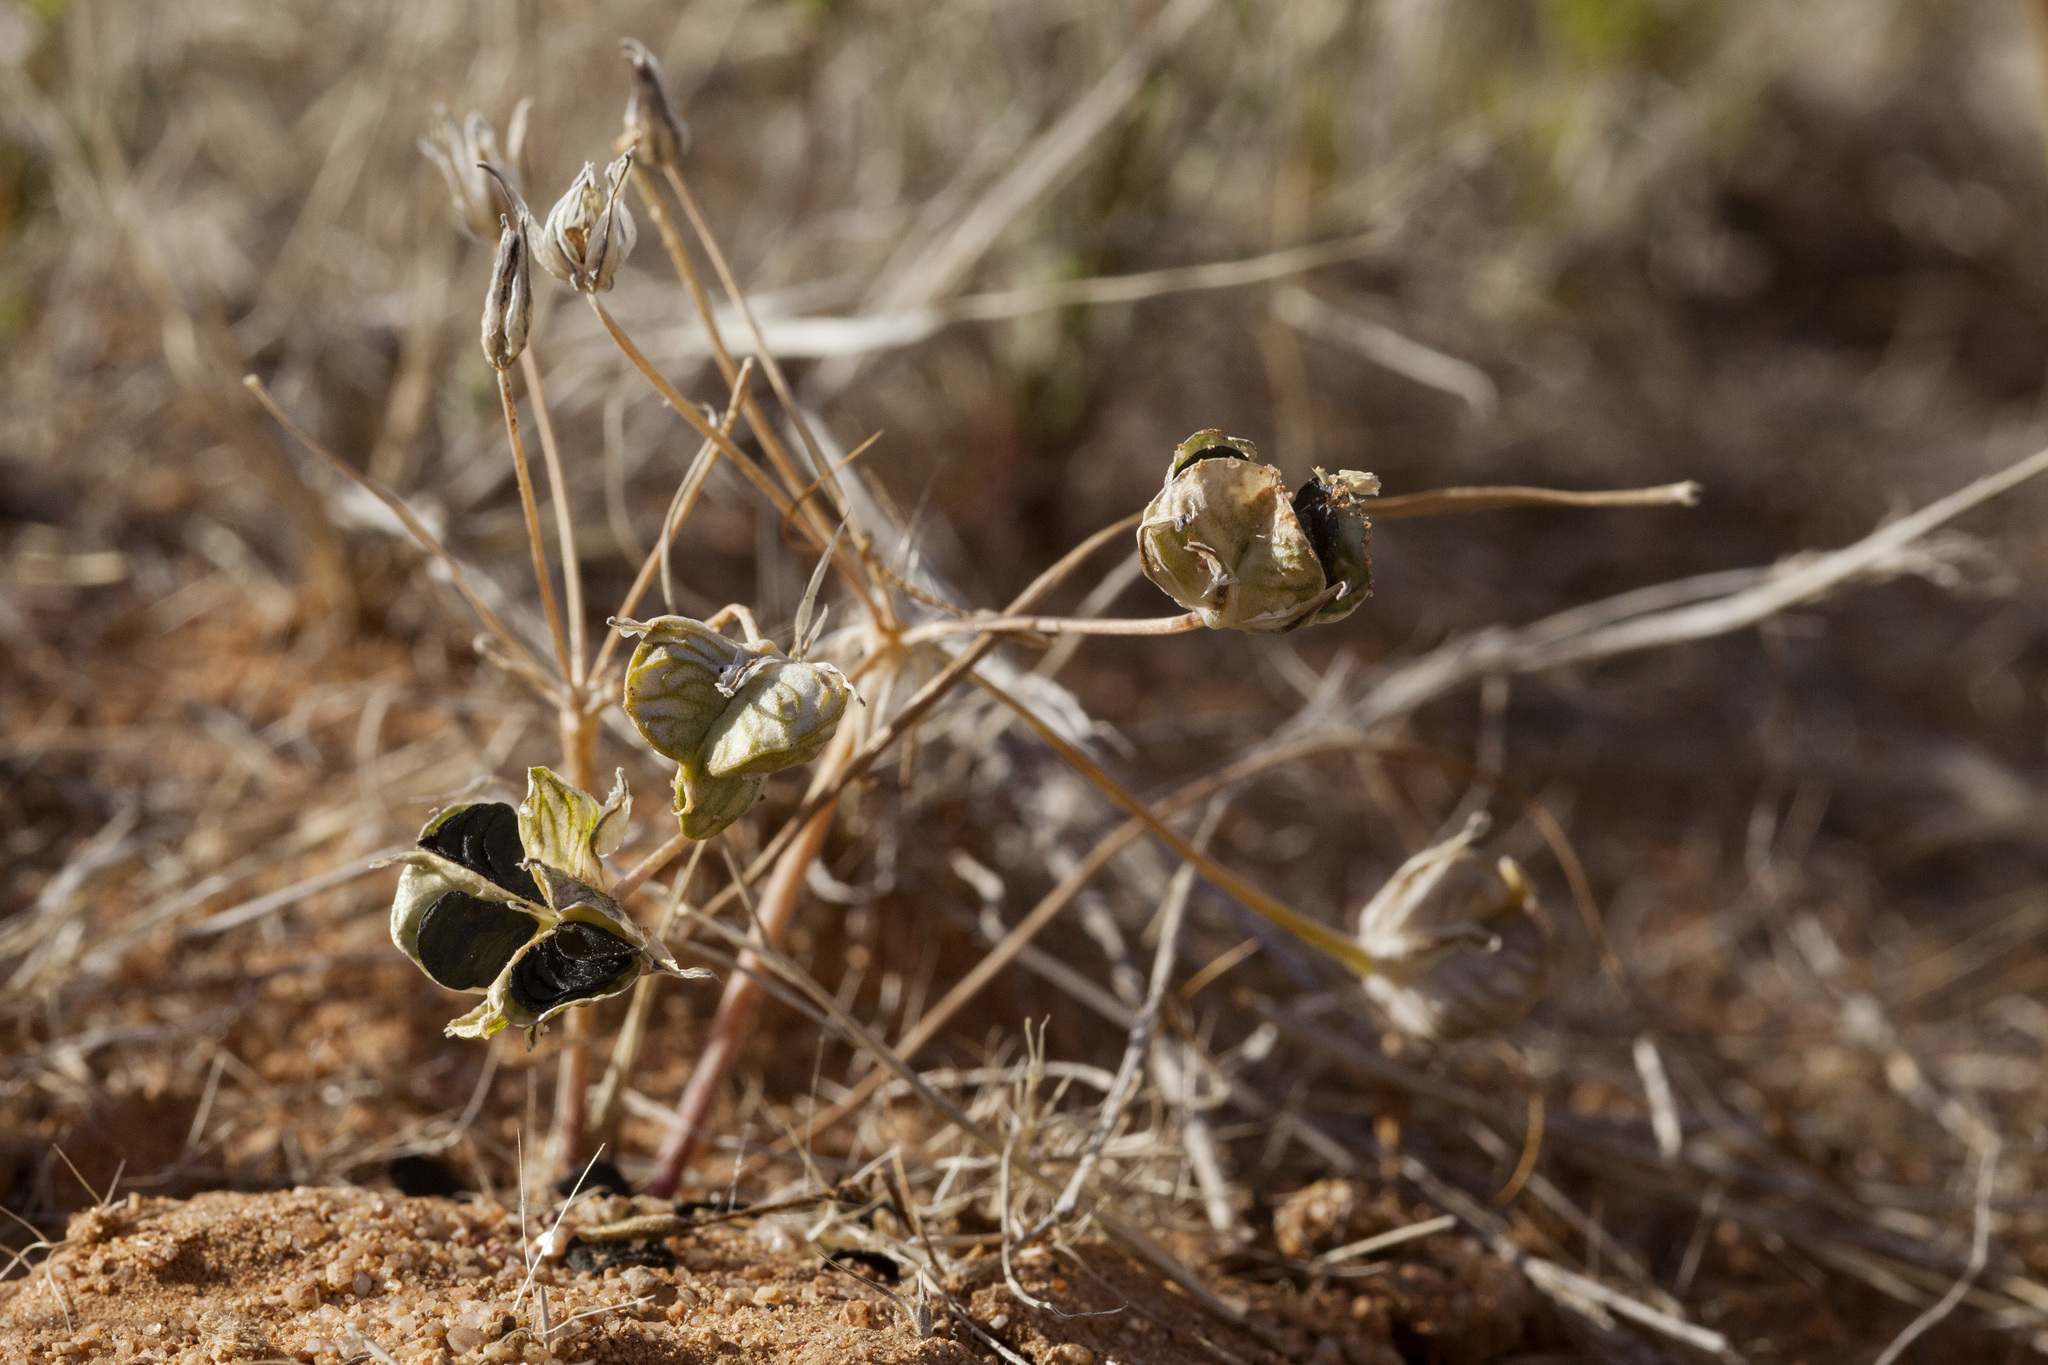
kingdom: Plantae
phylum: Tracheophyta
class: Liliopsida
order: Asparagales
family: Asparagaceae
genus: Muilla
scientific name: Muilla lordsburgana
